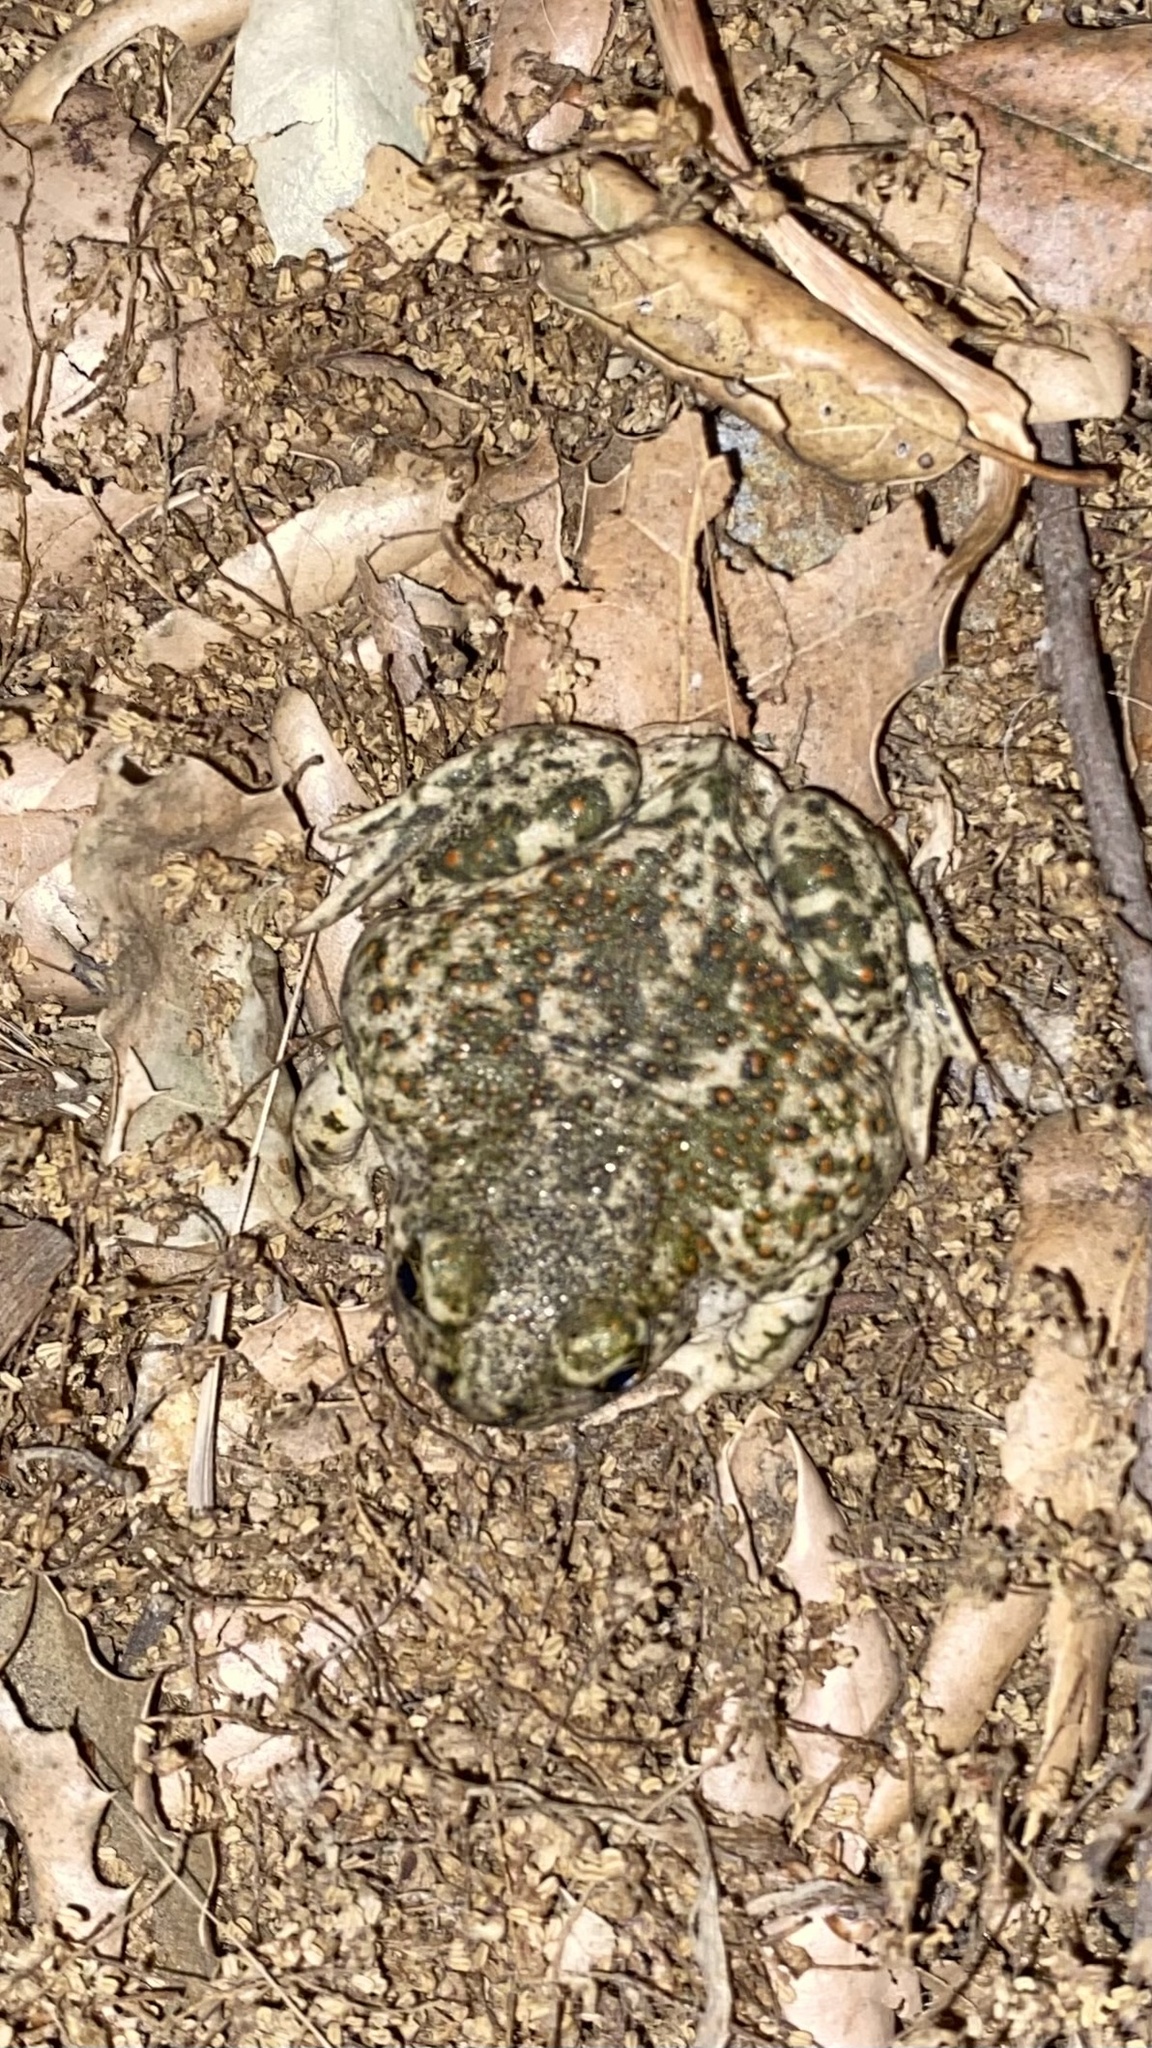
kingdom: Animalia
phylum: Chordata
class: Amphibia
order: Anura
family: Scaphiopodidae
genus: Spea
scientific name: Spea hammondii
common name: Western spadefoot toad
